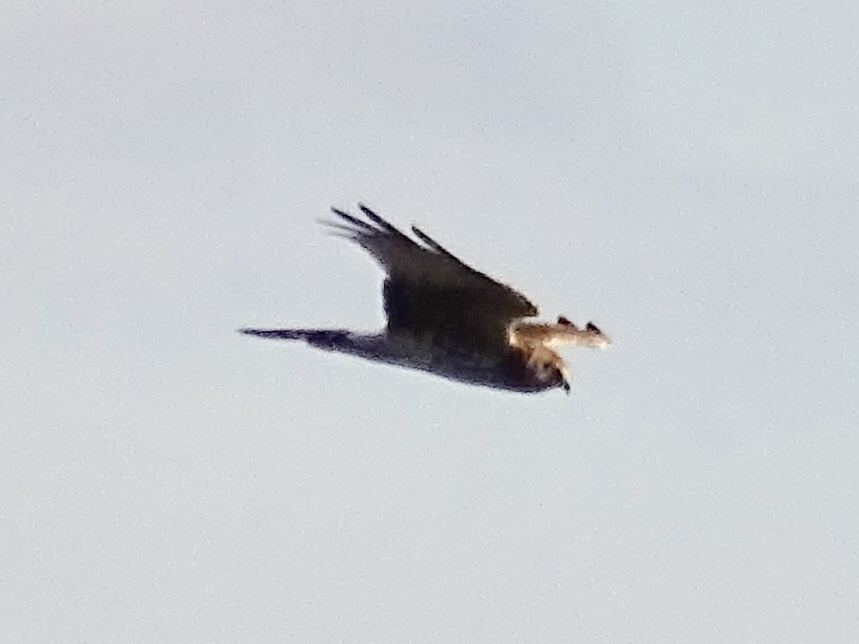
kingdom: Animalia
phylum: Chordata
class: Aves
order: Accipitriformes
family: Accipitridae
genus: Circus
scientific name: Circus cyaneus
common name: Hen harrier
